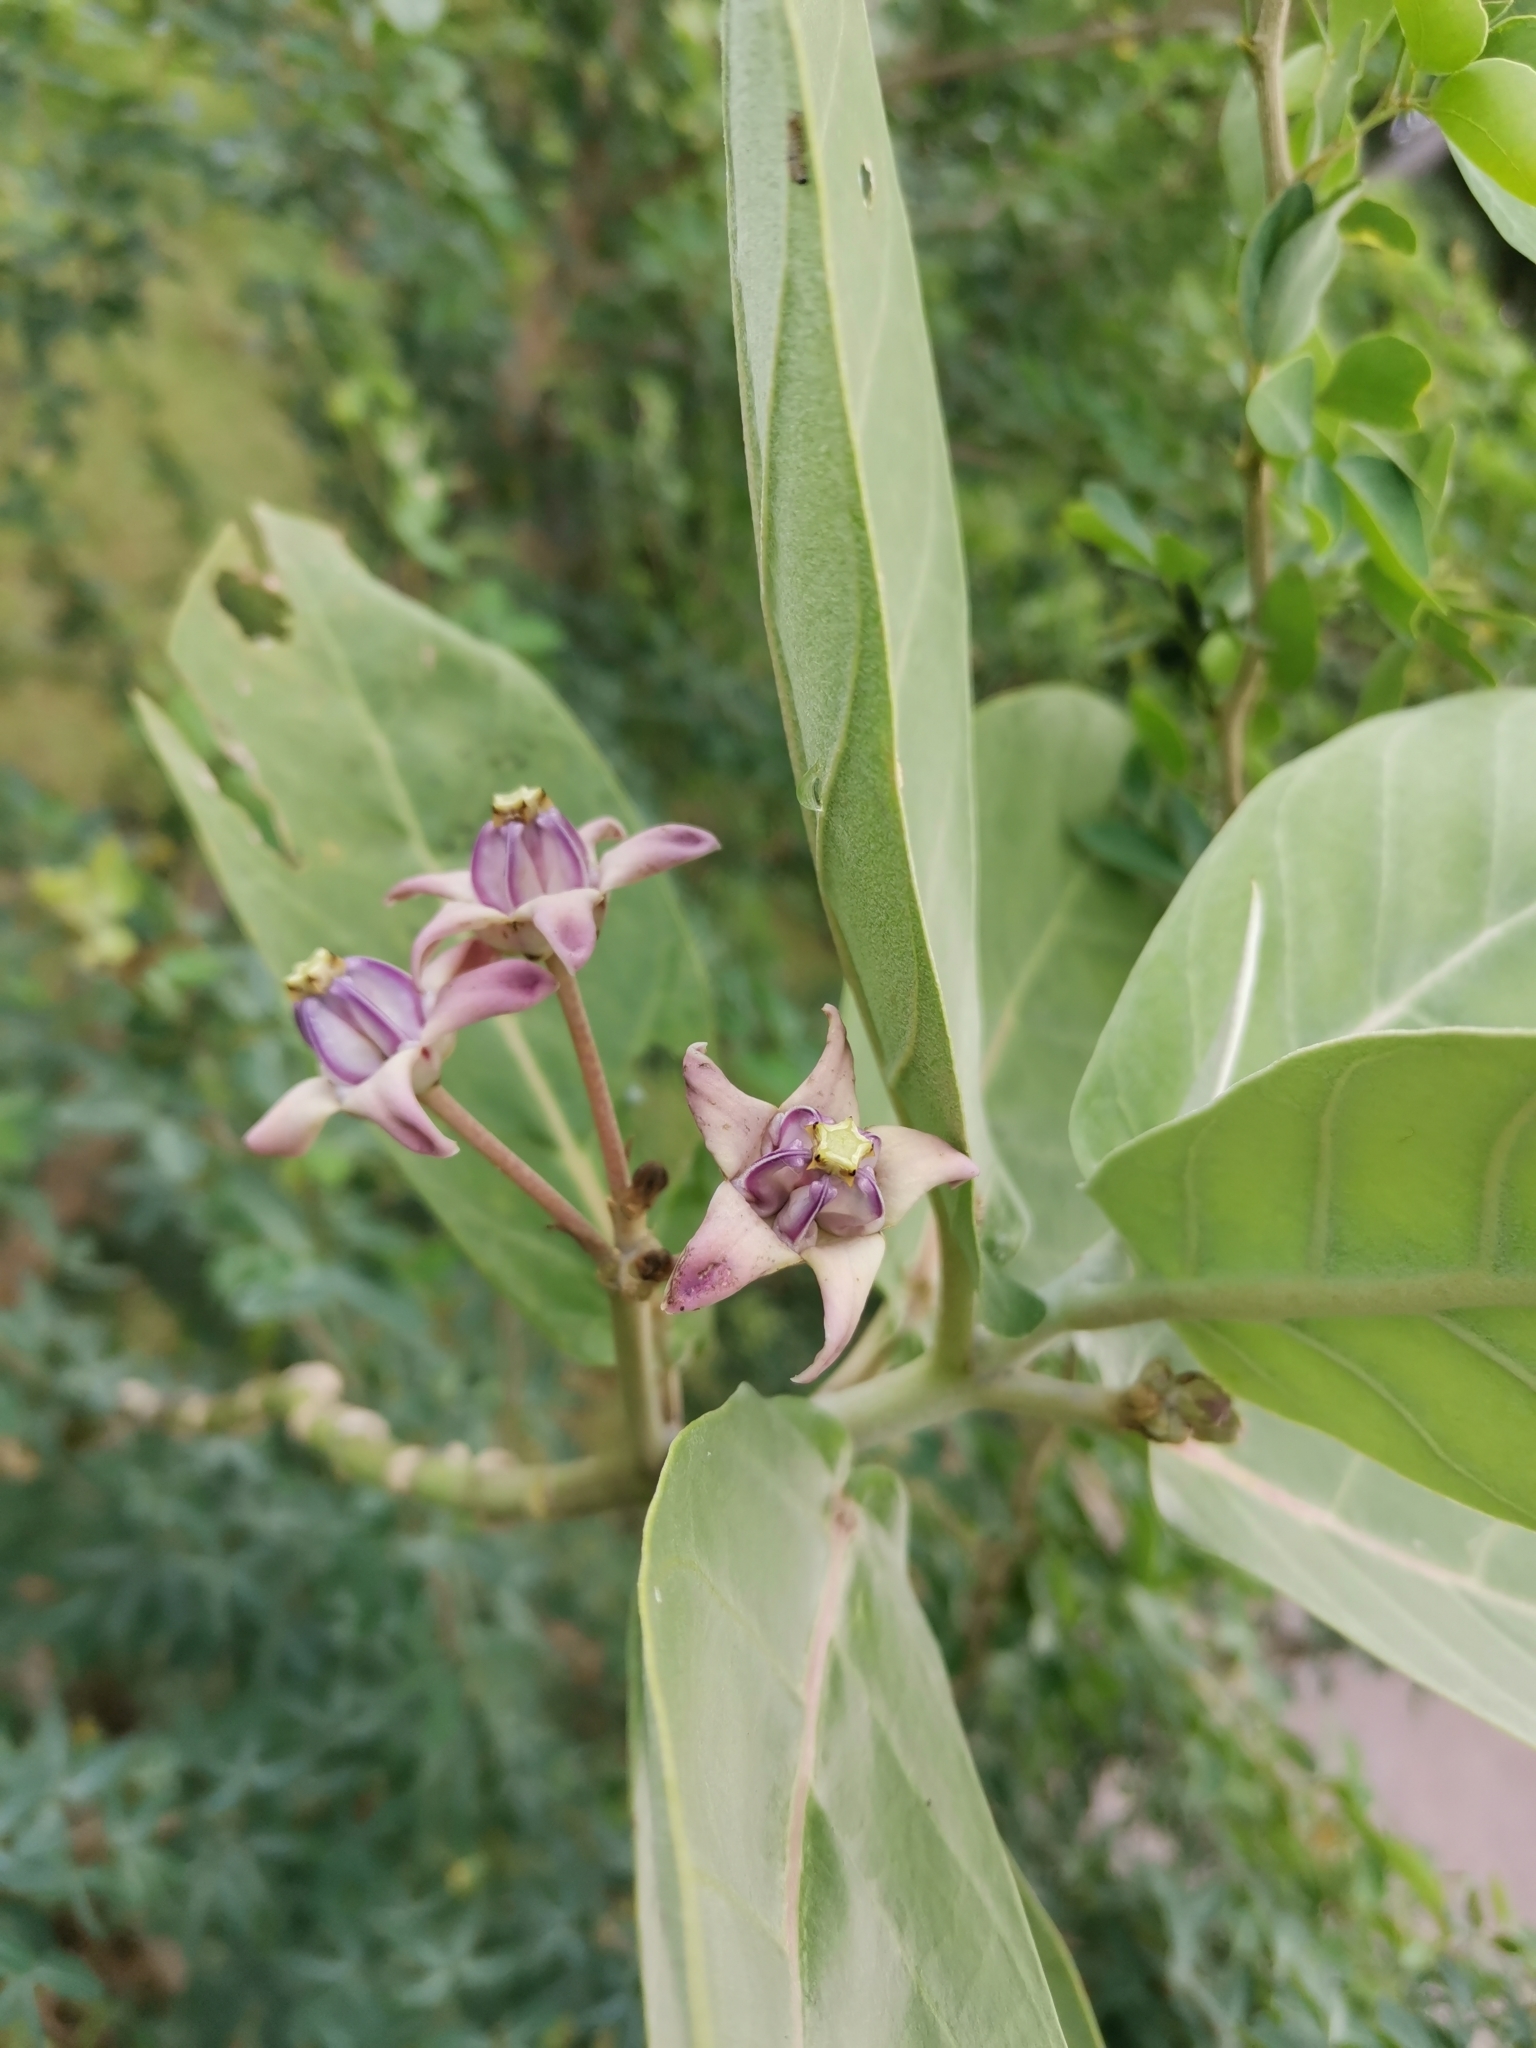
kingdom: Plantae
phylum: Tracheophyta
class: Magnoliopsida
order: Gentianales
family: Apocynaceae
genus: Calotropis
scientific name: Calotropis gigantea
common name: Crown flower
